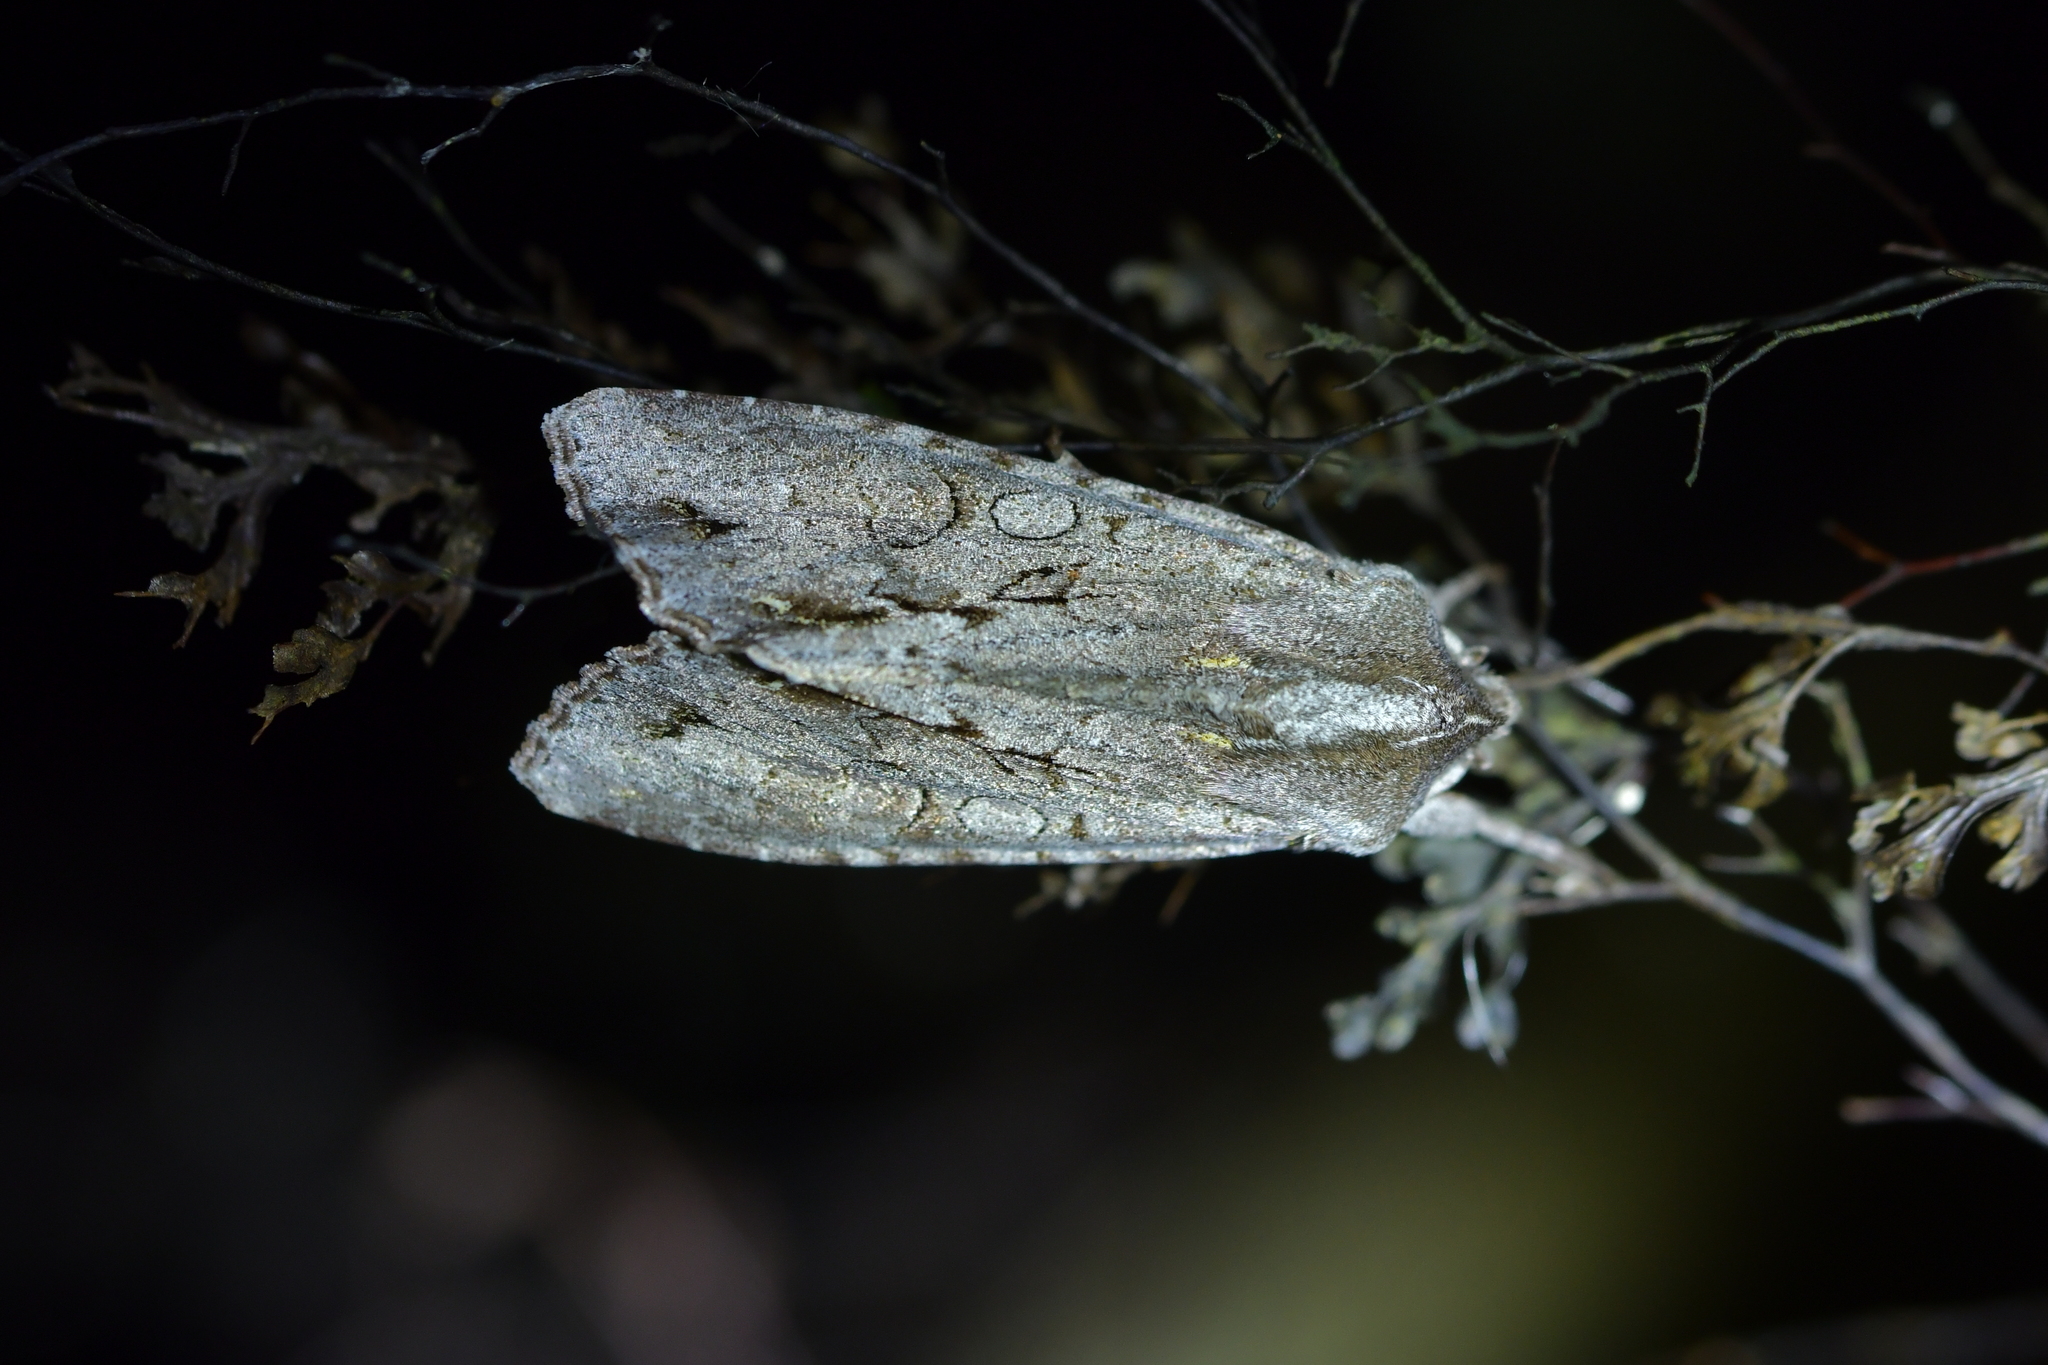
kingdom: Animalia
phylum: Arthropoda
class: Insecta
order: Lepidoptera
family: Noctuidae
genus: Ichneutica
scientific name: Ichneutica
